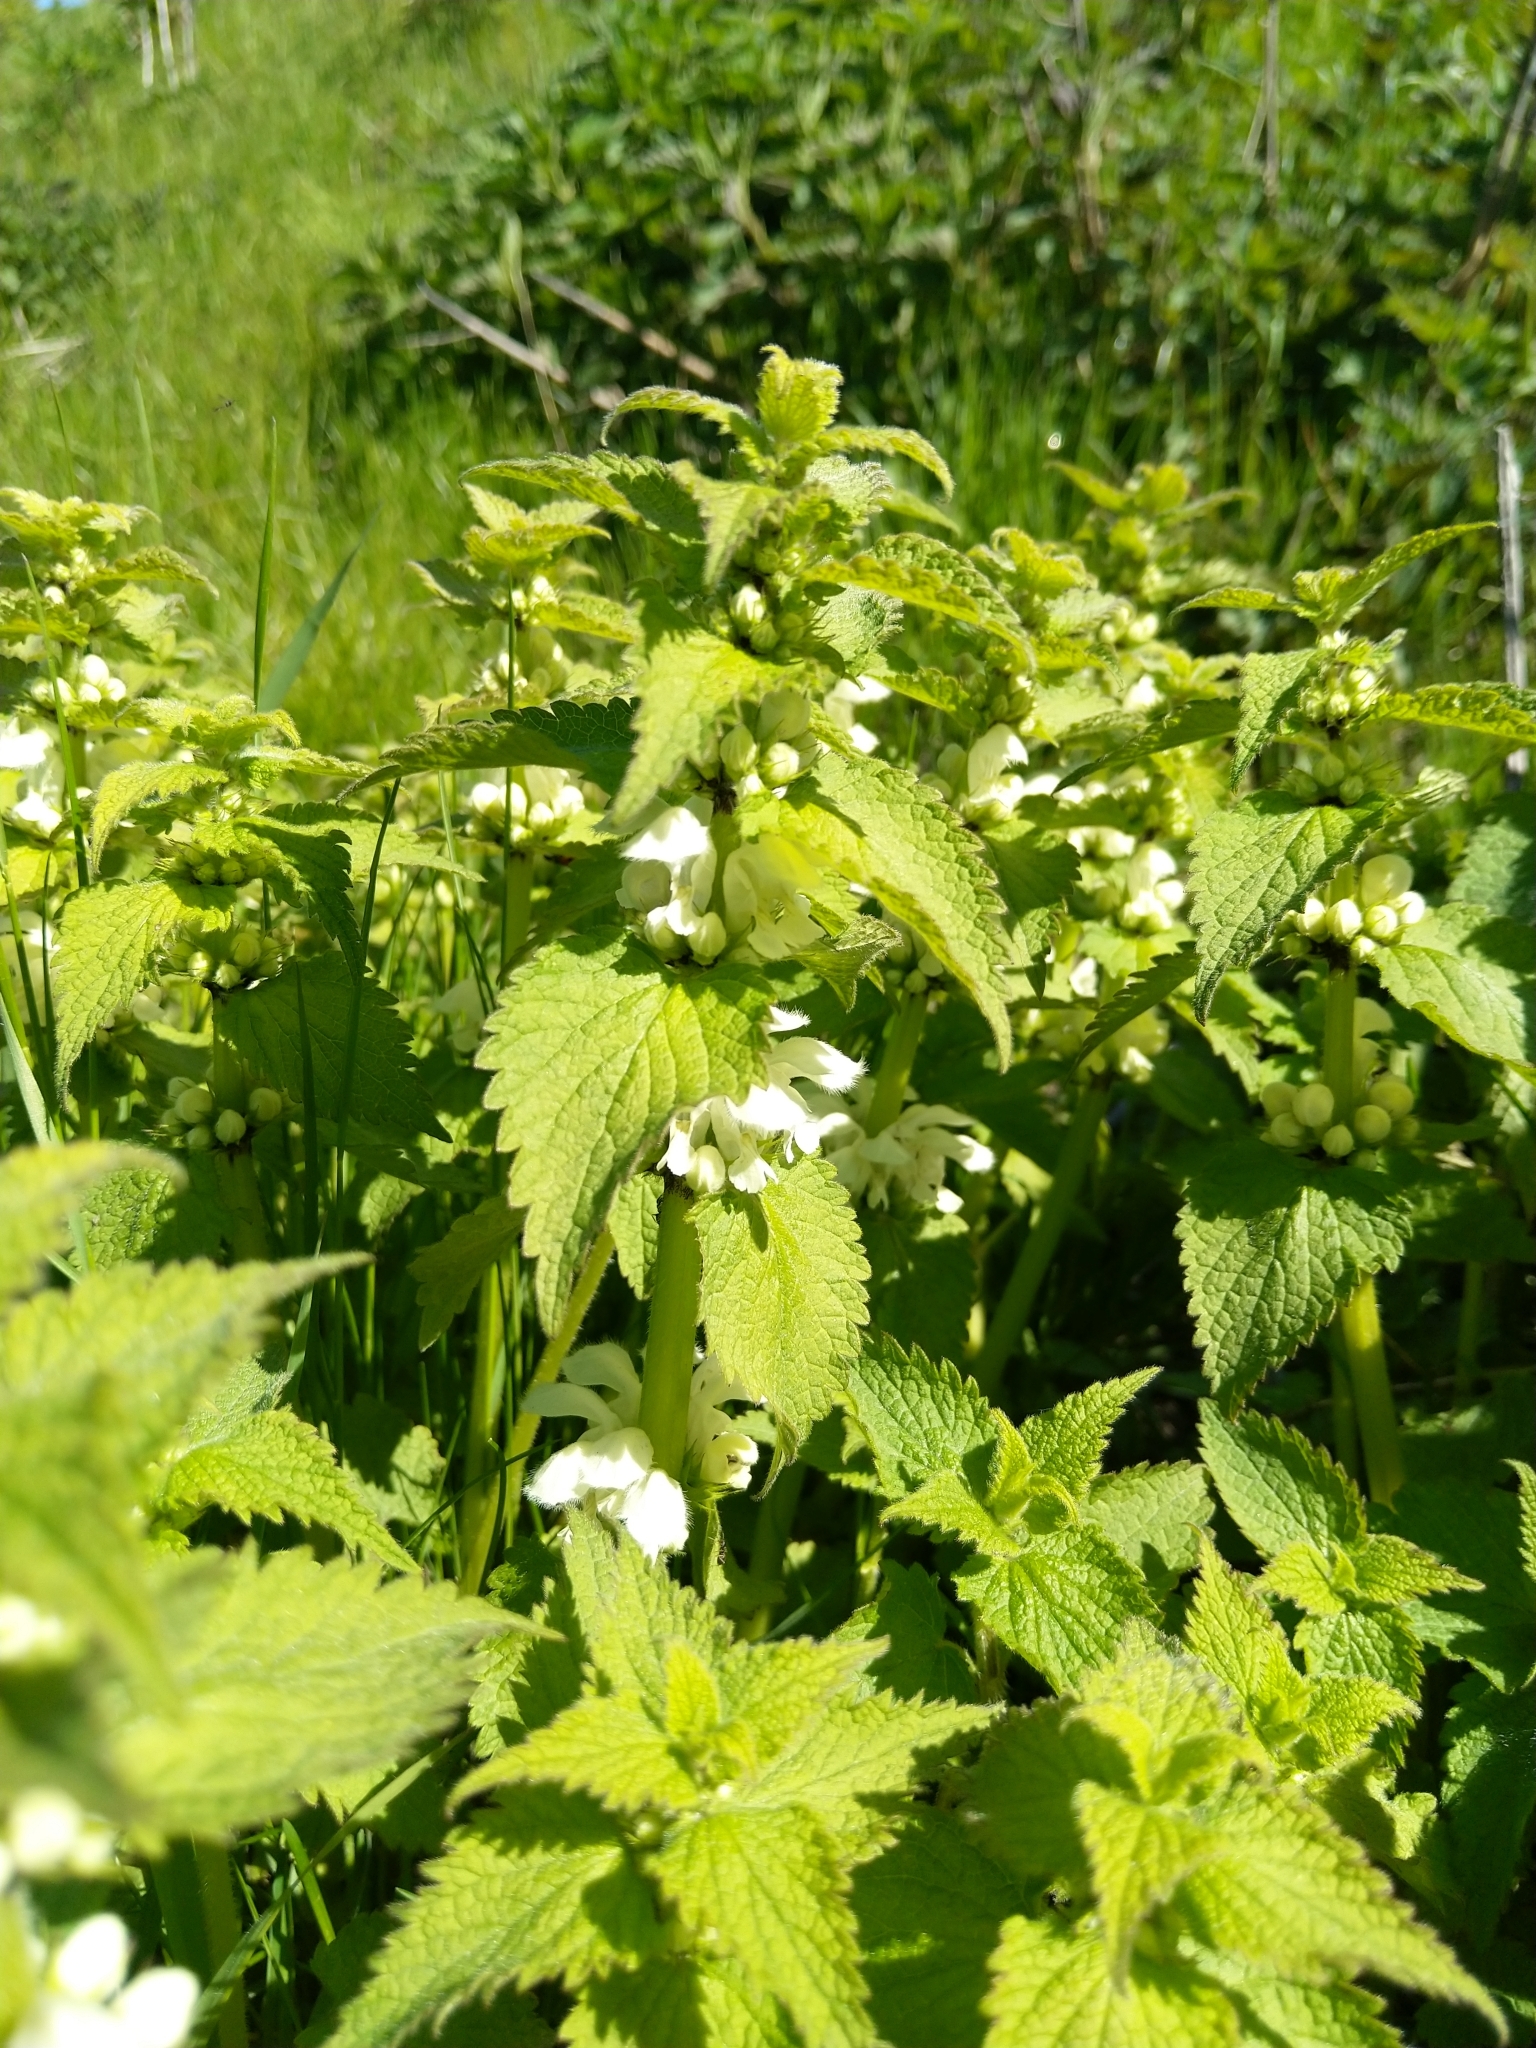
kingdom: Plantae
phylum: Tracheophyta
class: Magnoliopsida
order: Lamiales
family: Lamiaceae
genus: Lamium
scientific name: Lamium album
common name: White dead-nettle
